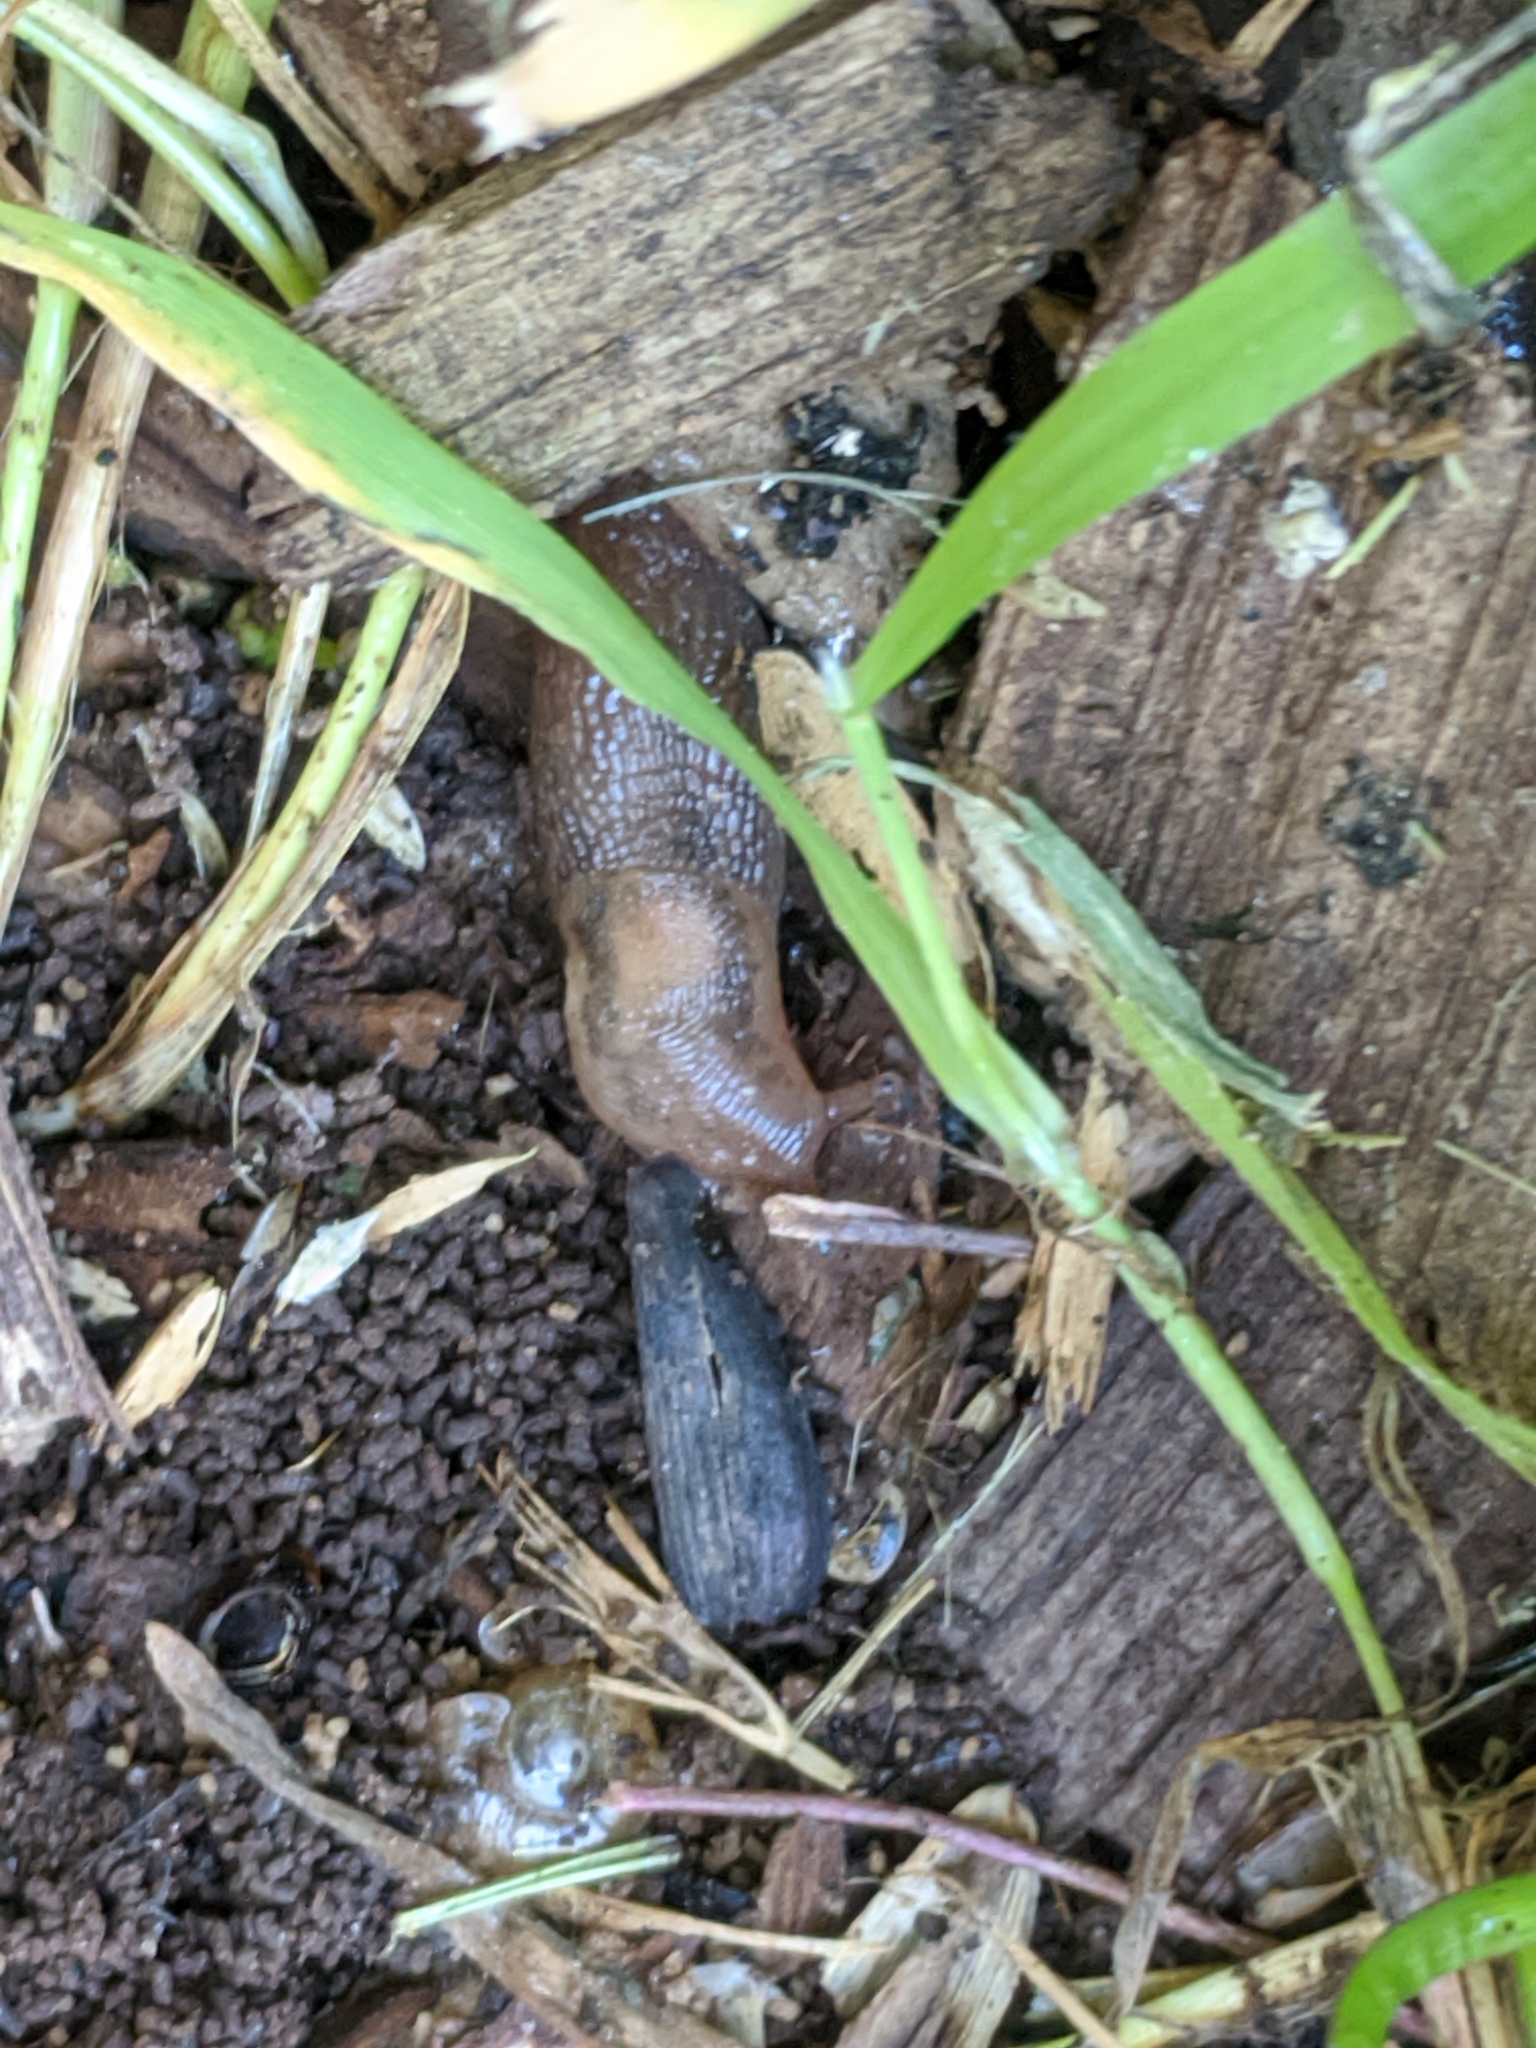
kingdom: Animalia
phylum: Mollusca
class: Gastropoda
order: Stylommatophora
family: Limacidae
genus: Ambigolimax
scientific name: Ambigolimax
